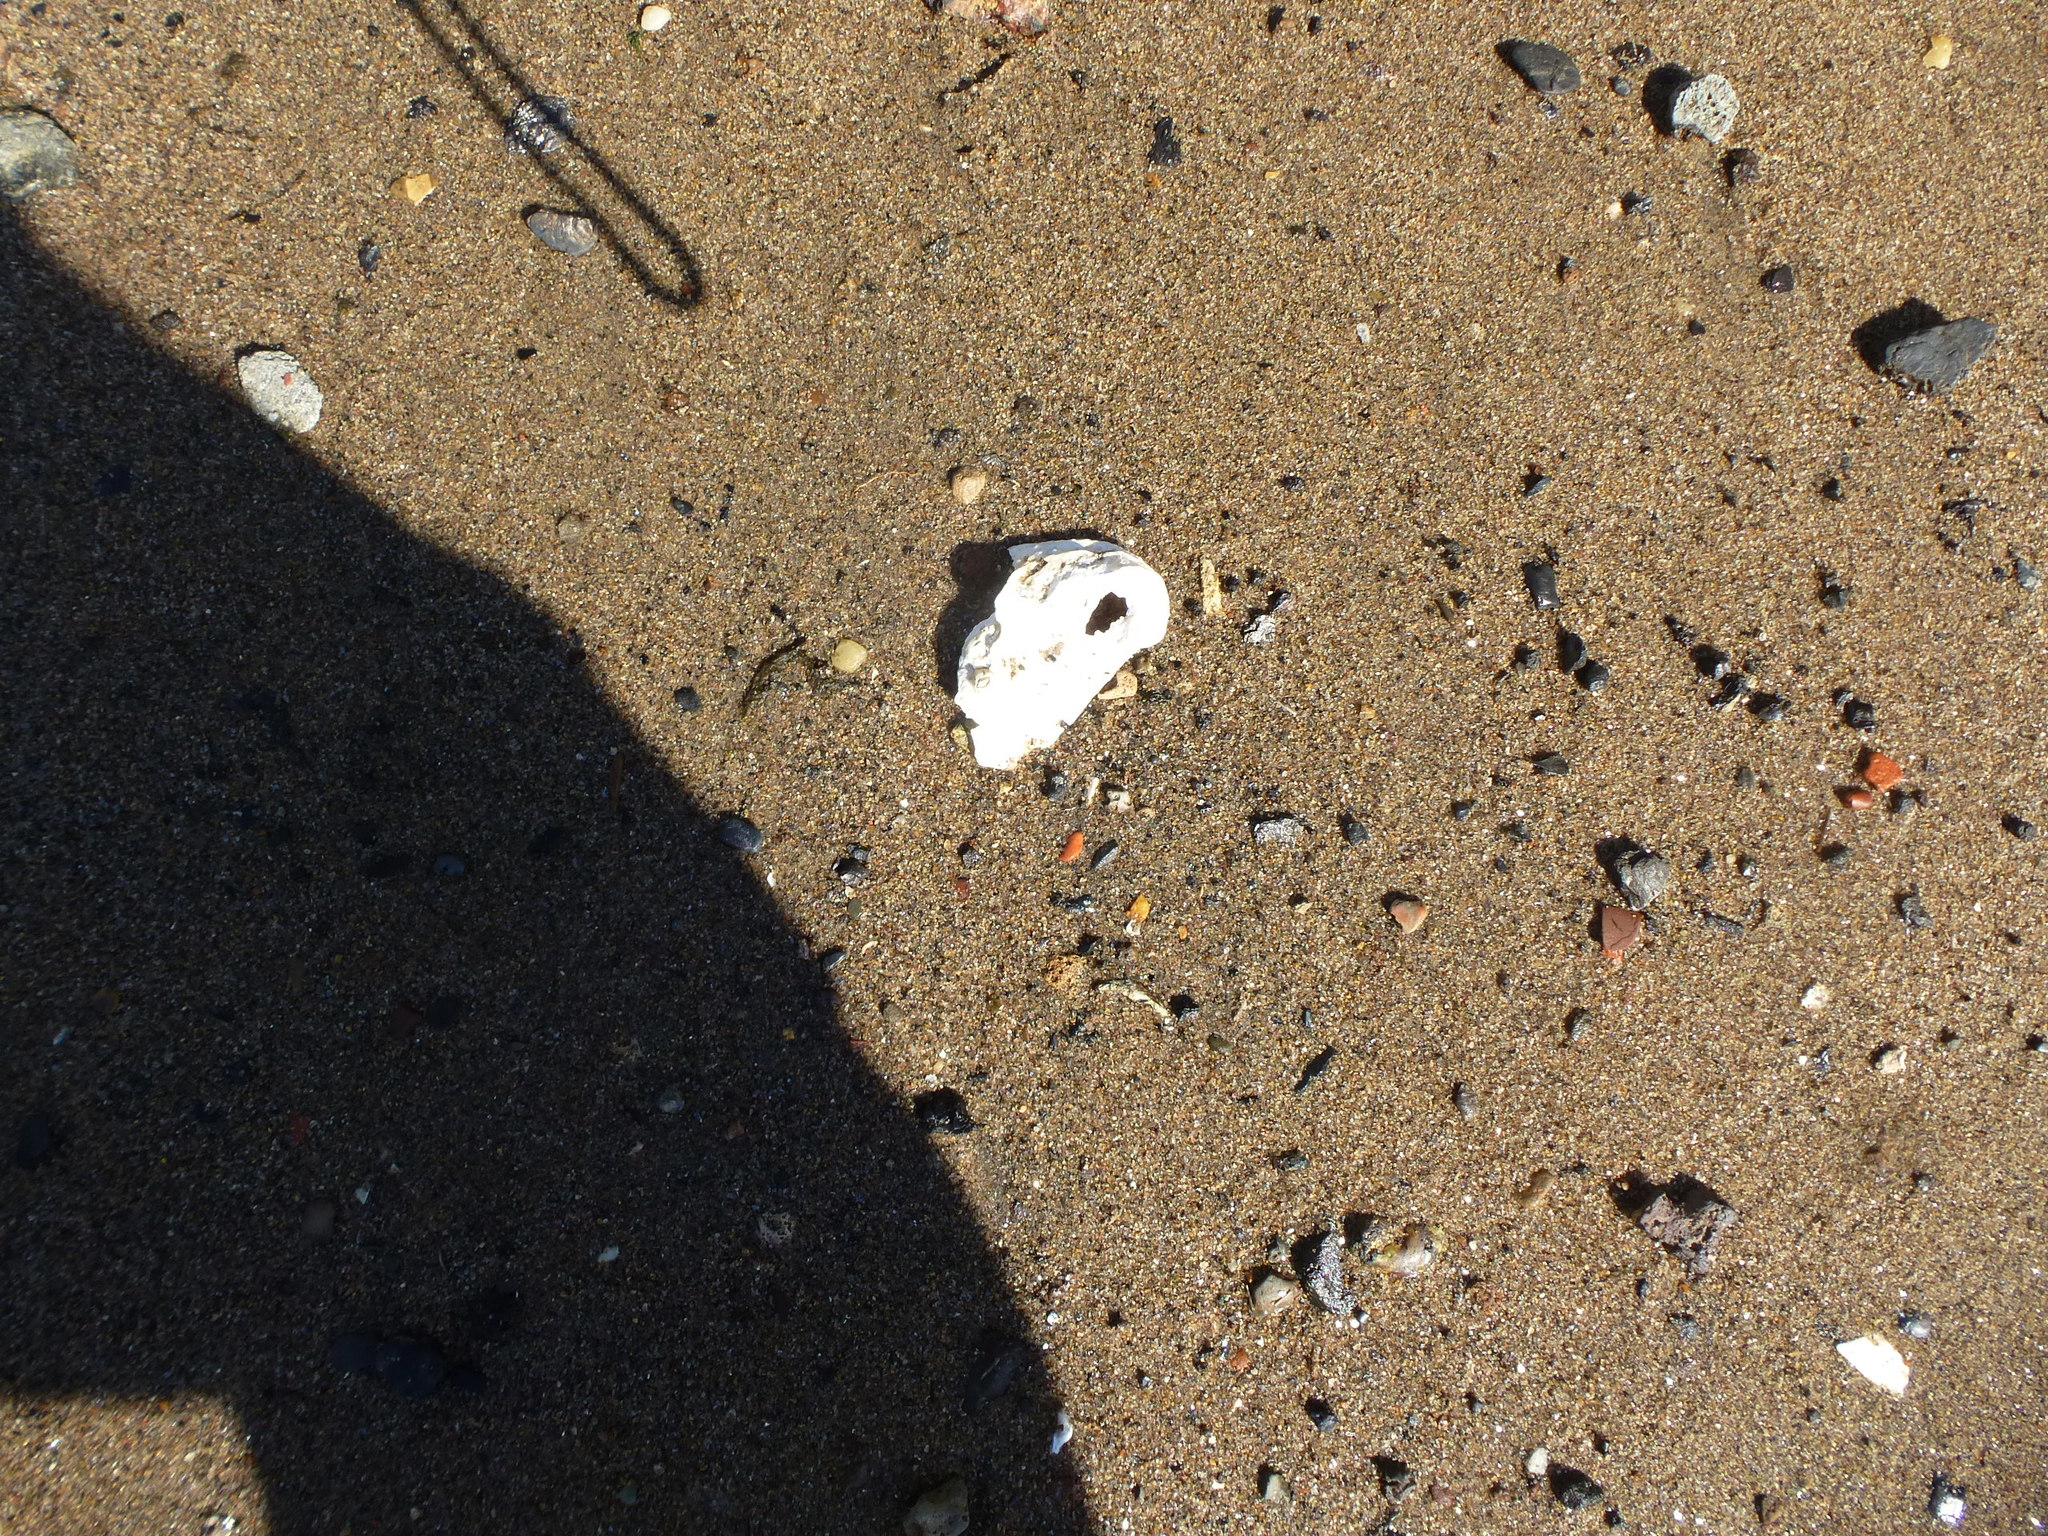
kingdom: Animalia
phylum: Mollusca
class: Bivalvia
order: Mytilida
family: Mytilidae
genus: Geukensia
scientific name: Geukensia demissa
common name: Ribbed mussel
